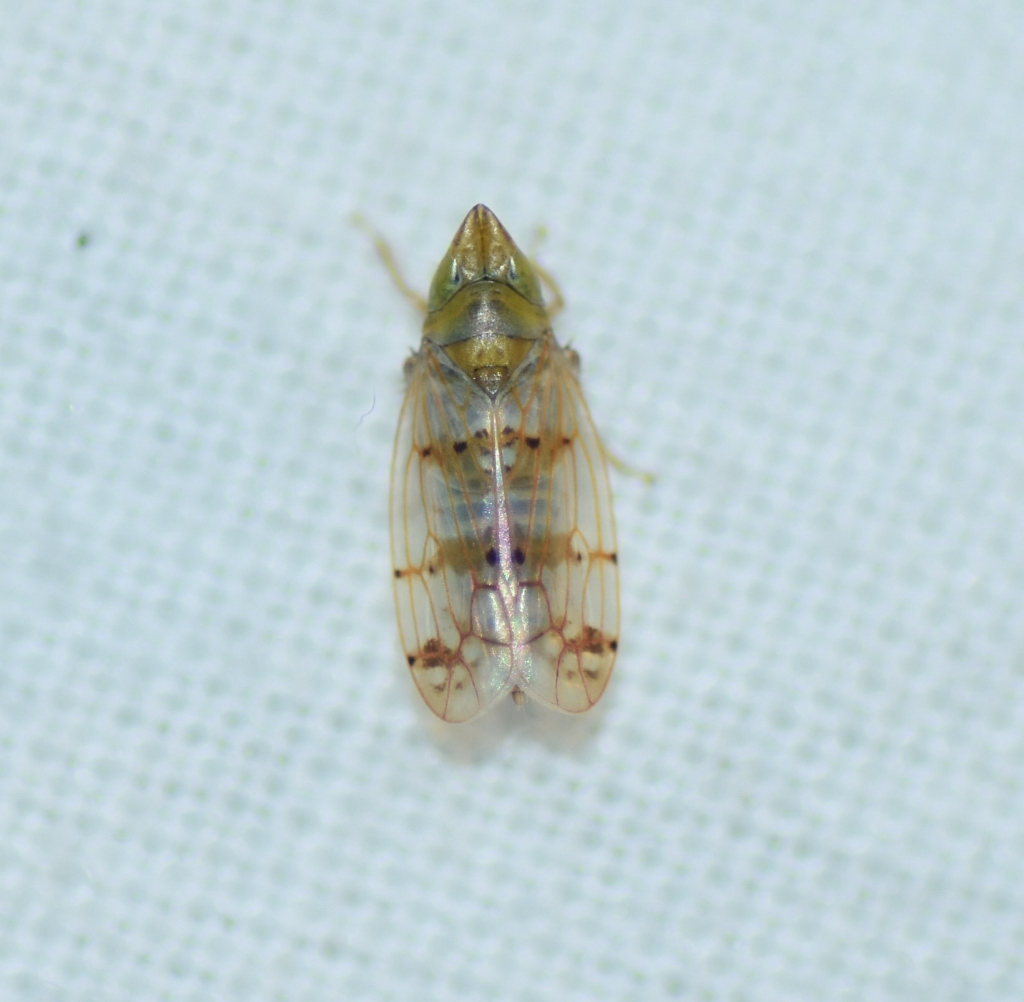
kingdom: Animalia
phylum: Arthropoda
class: Insecta
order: Hemiptera
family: Cicadellidae
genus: Japananus
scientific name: Japananus hyalinus
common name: The japanese maple leafhopper
